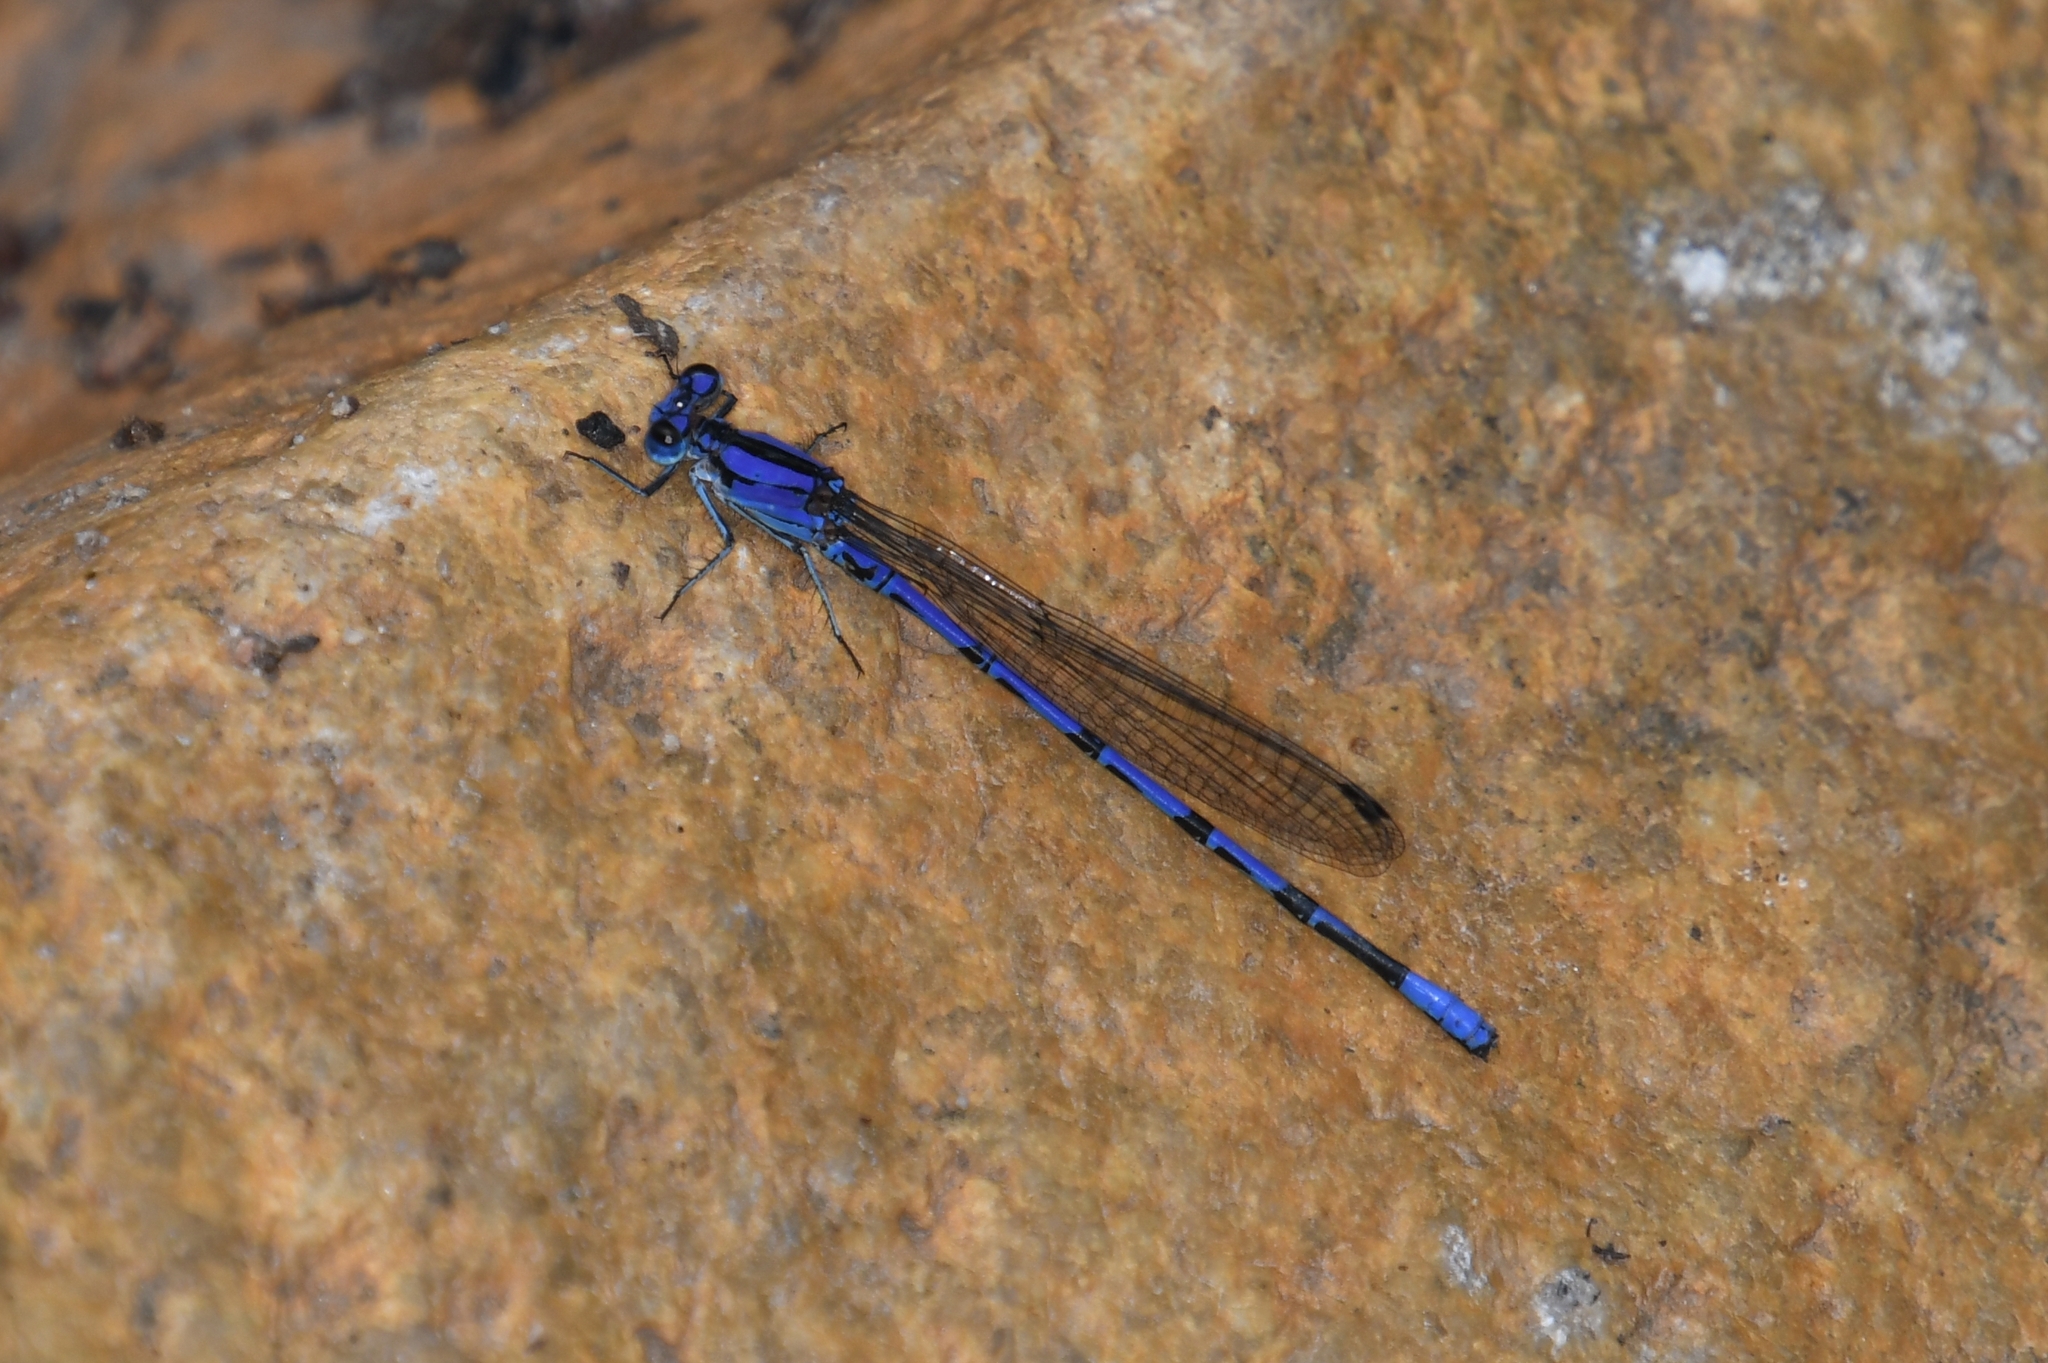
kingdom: Animalia
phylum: Arthropoda
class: Insecta
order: Odonata
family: Coenagrionidae
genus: Argia
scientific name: Argia extranea
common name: Spine-tipped dancer
